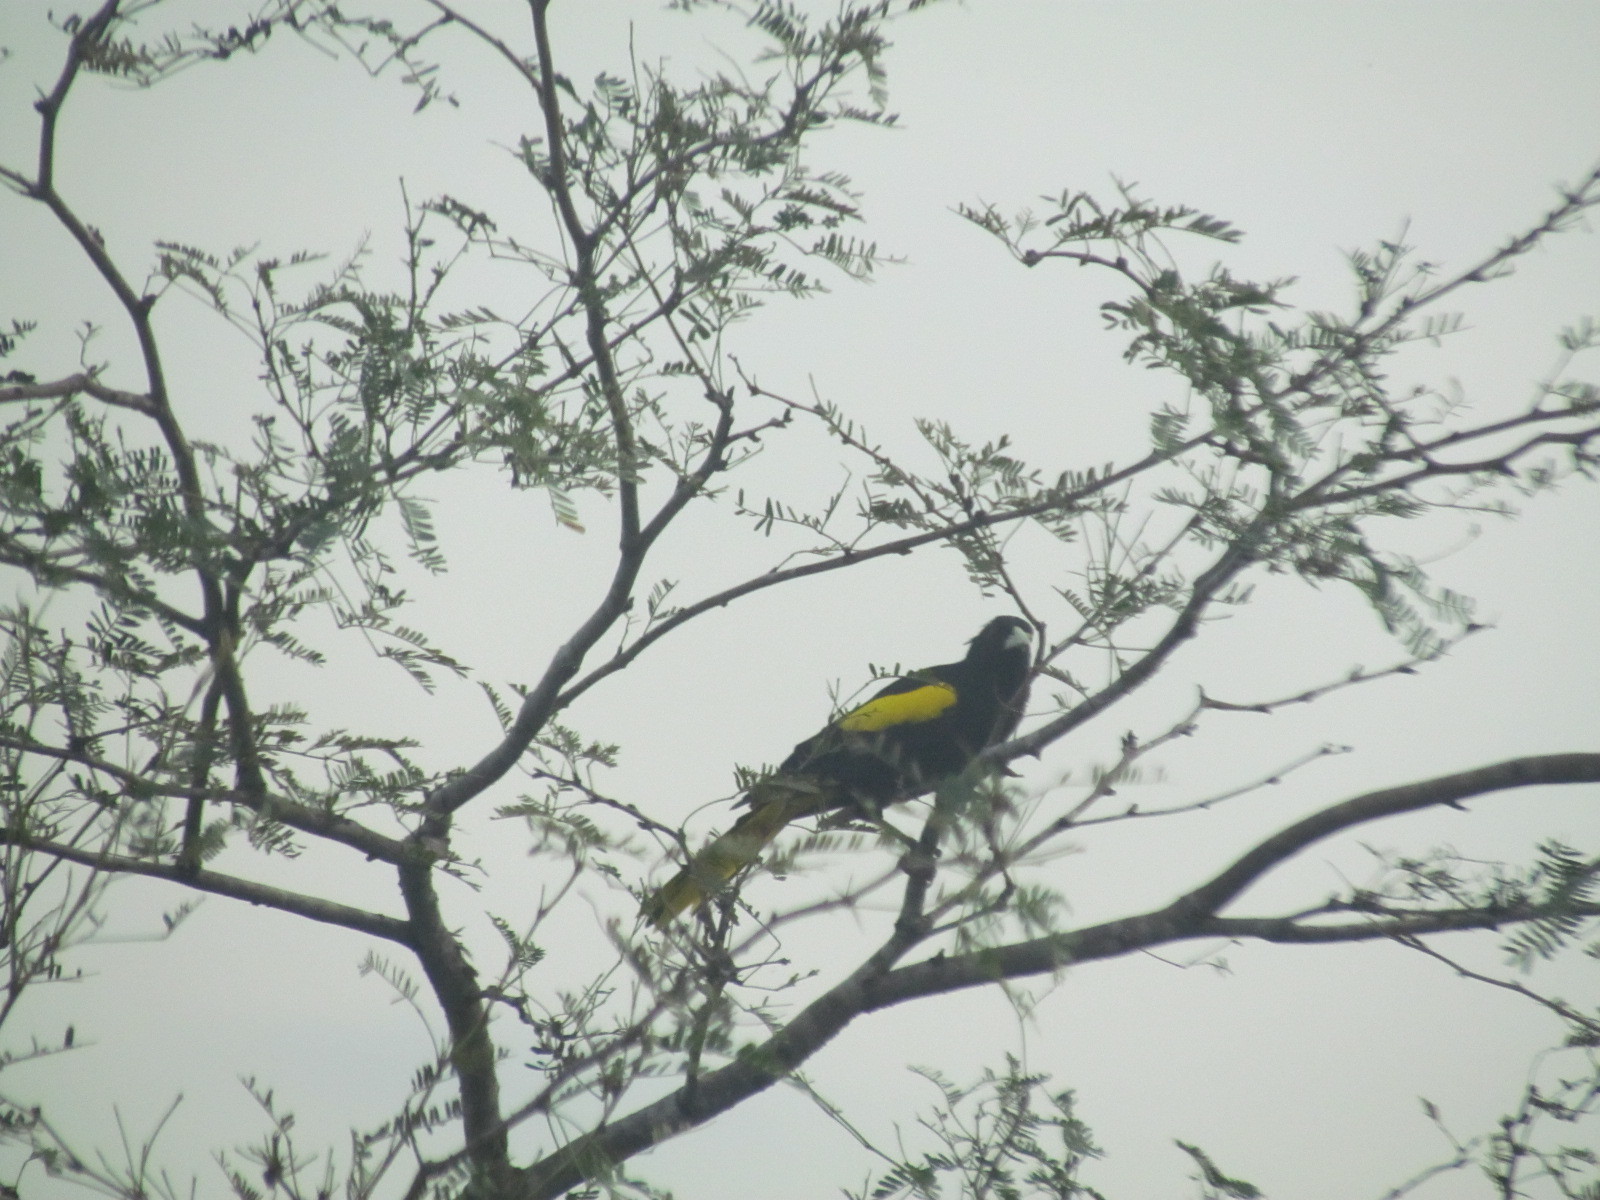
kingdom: Animalia
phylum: Chordata
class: Aves
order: Passeriformes
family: Icteridae
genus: Cacicus
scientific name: Cacicus melanicterus
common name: Yellow-winged cacique
